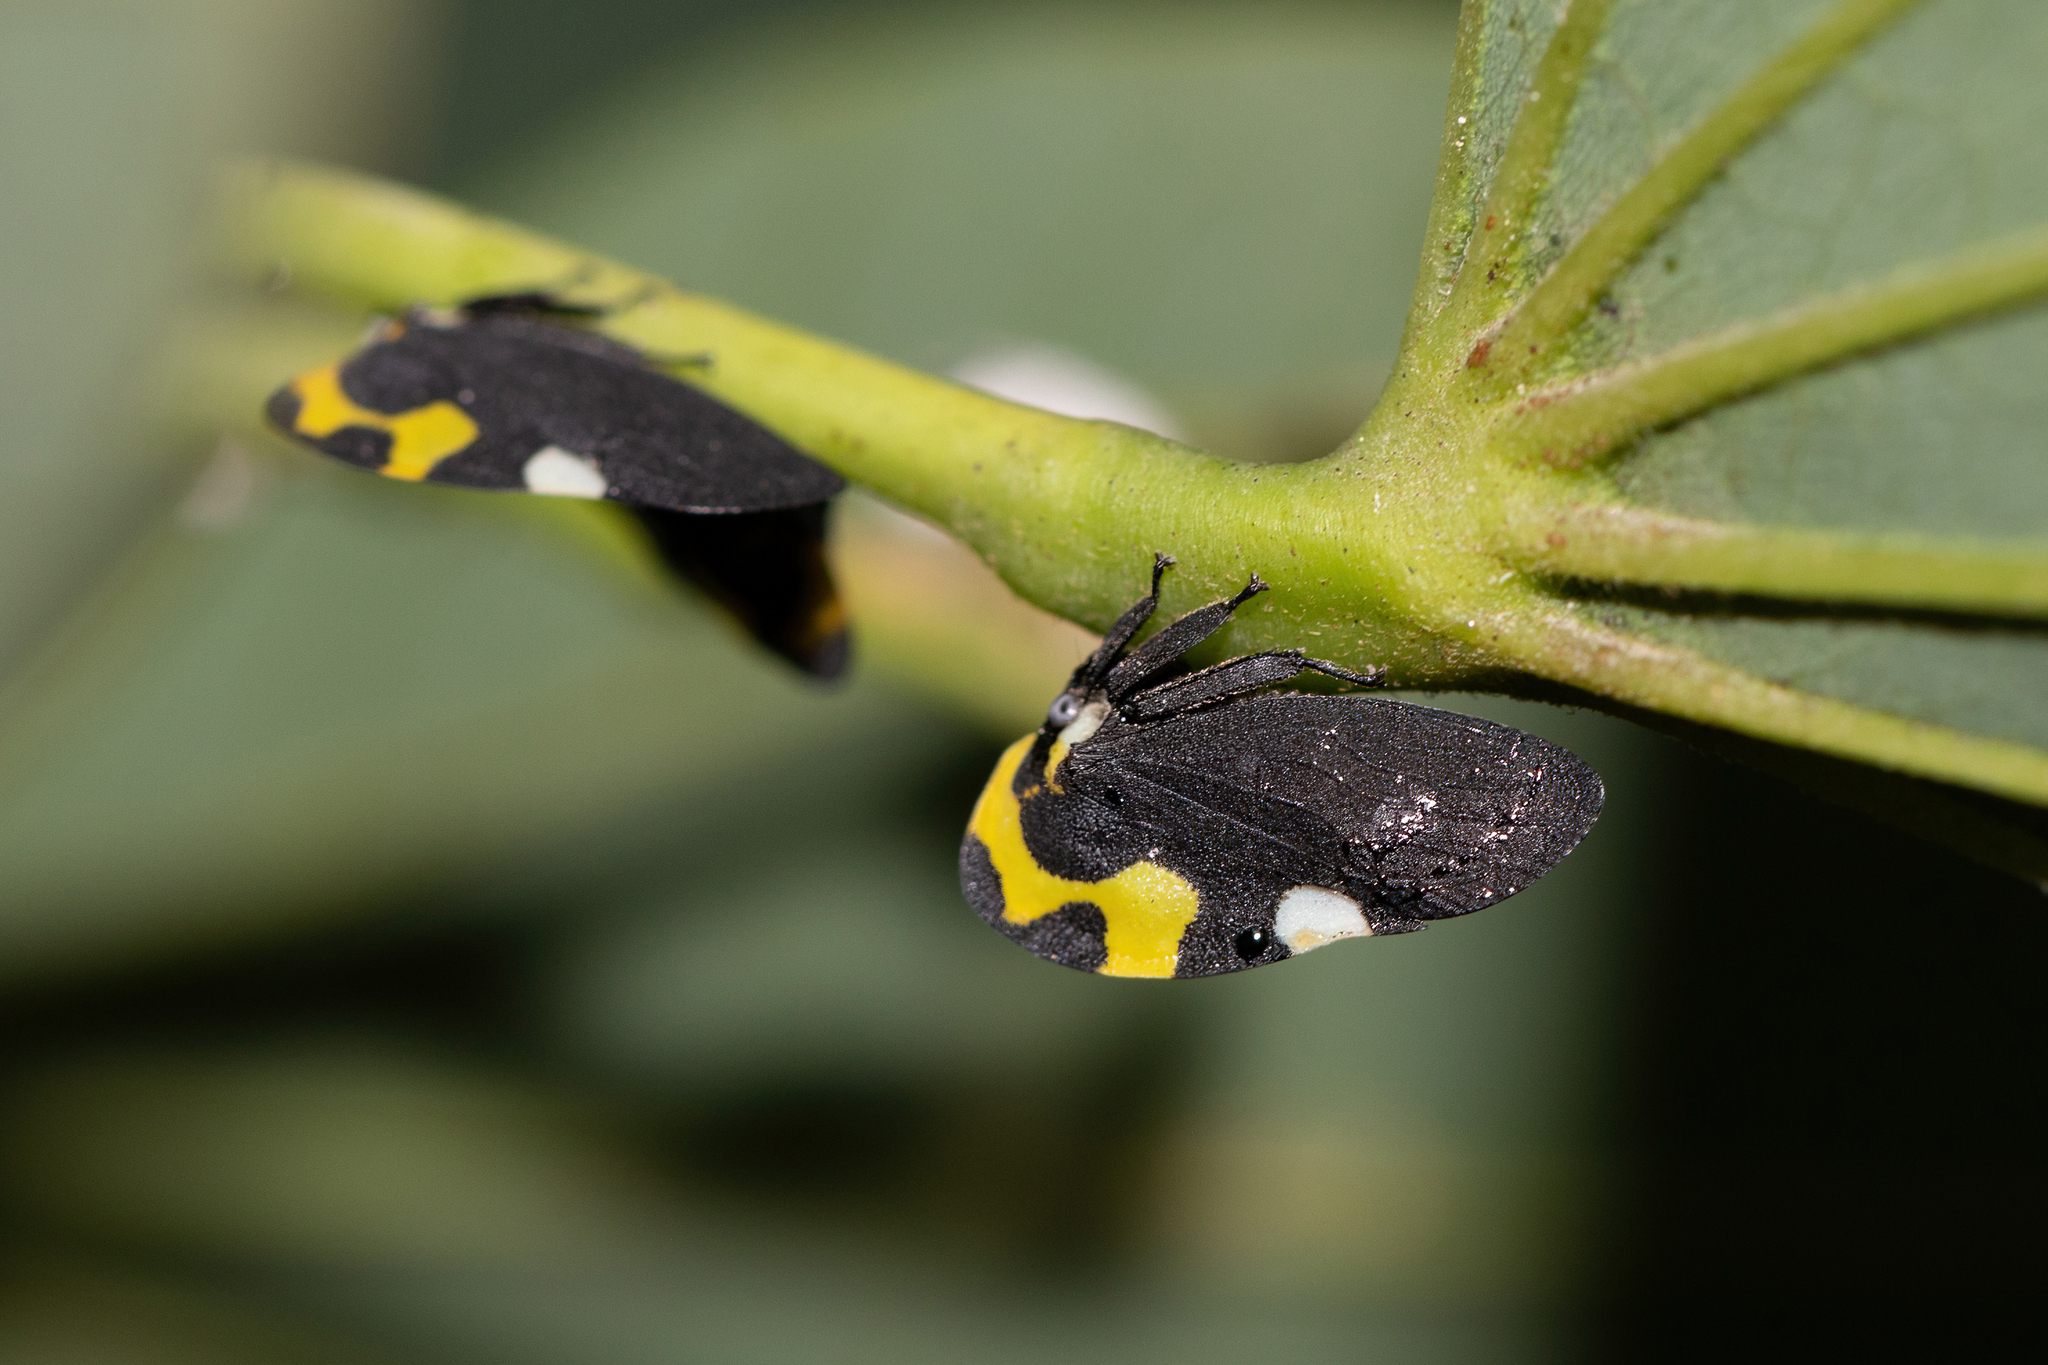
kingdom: Animalia
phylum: Arthropoda
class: Insecta
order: Hemiptera
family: Membracidae
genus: Membracis
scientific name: Membracis mexicana
